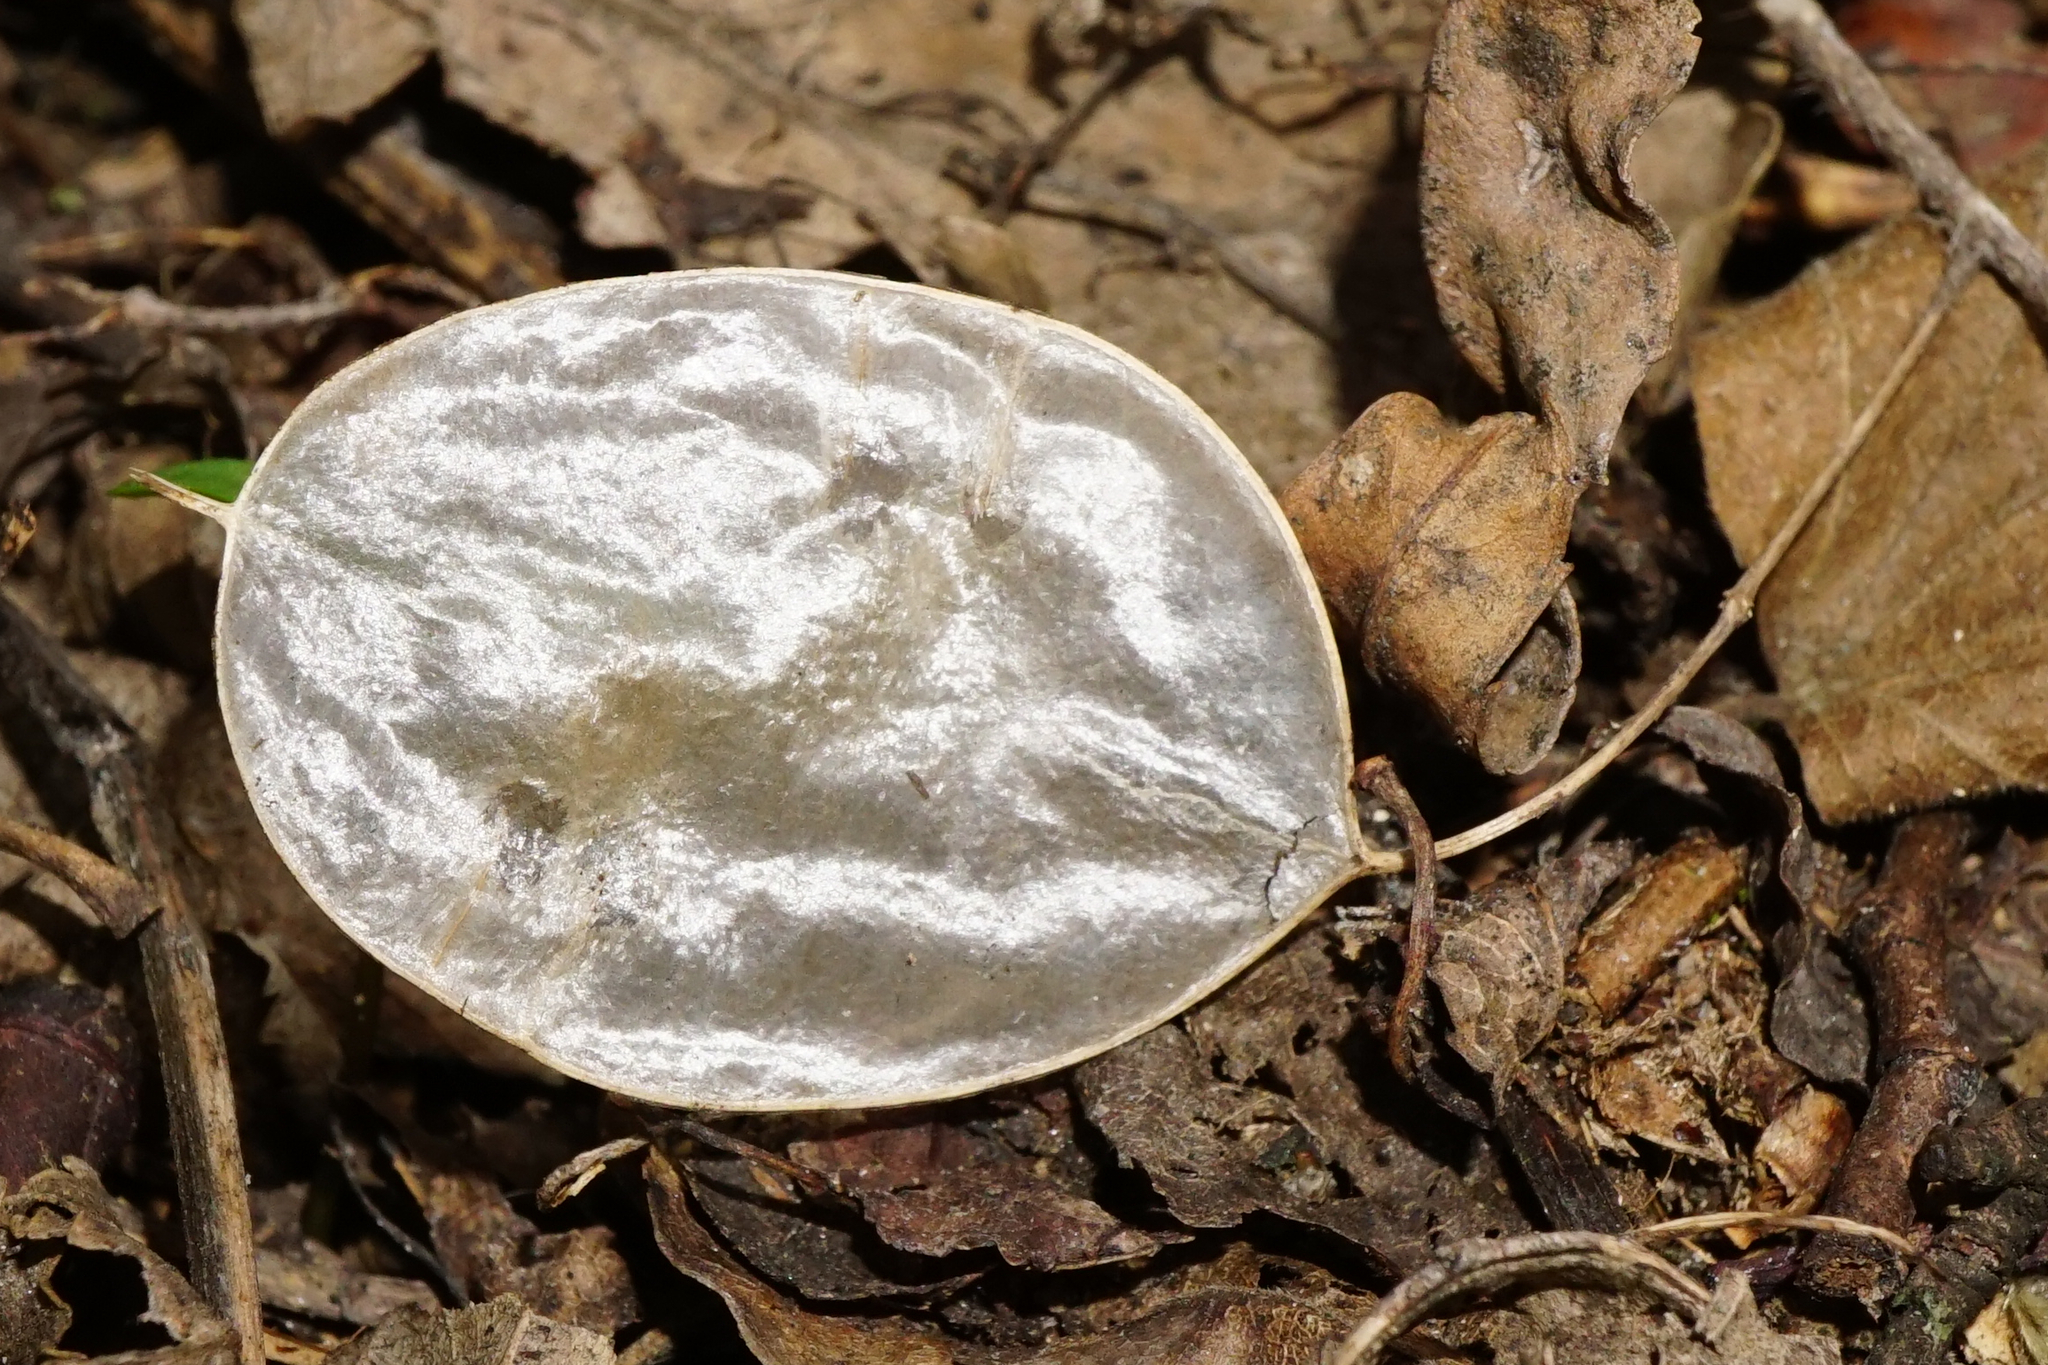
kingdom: Plantae
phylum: Tracheophyta
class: Magnoliopsida
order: Brassicales
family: Brassicaceae
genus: Lunaria
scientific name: Lunaria annua
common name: Honesty
